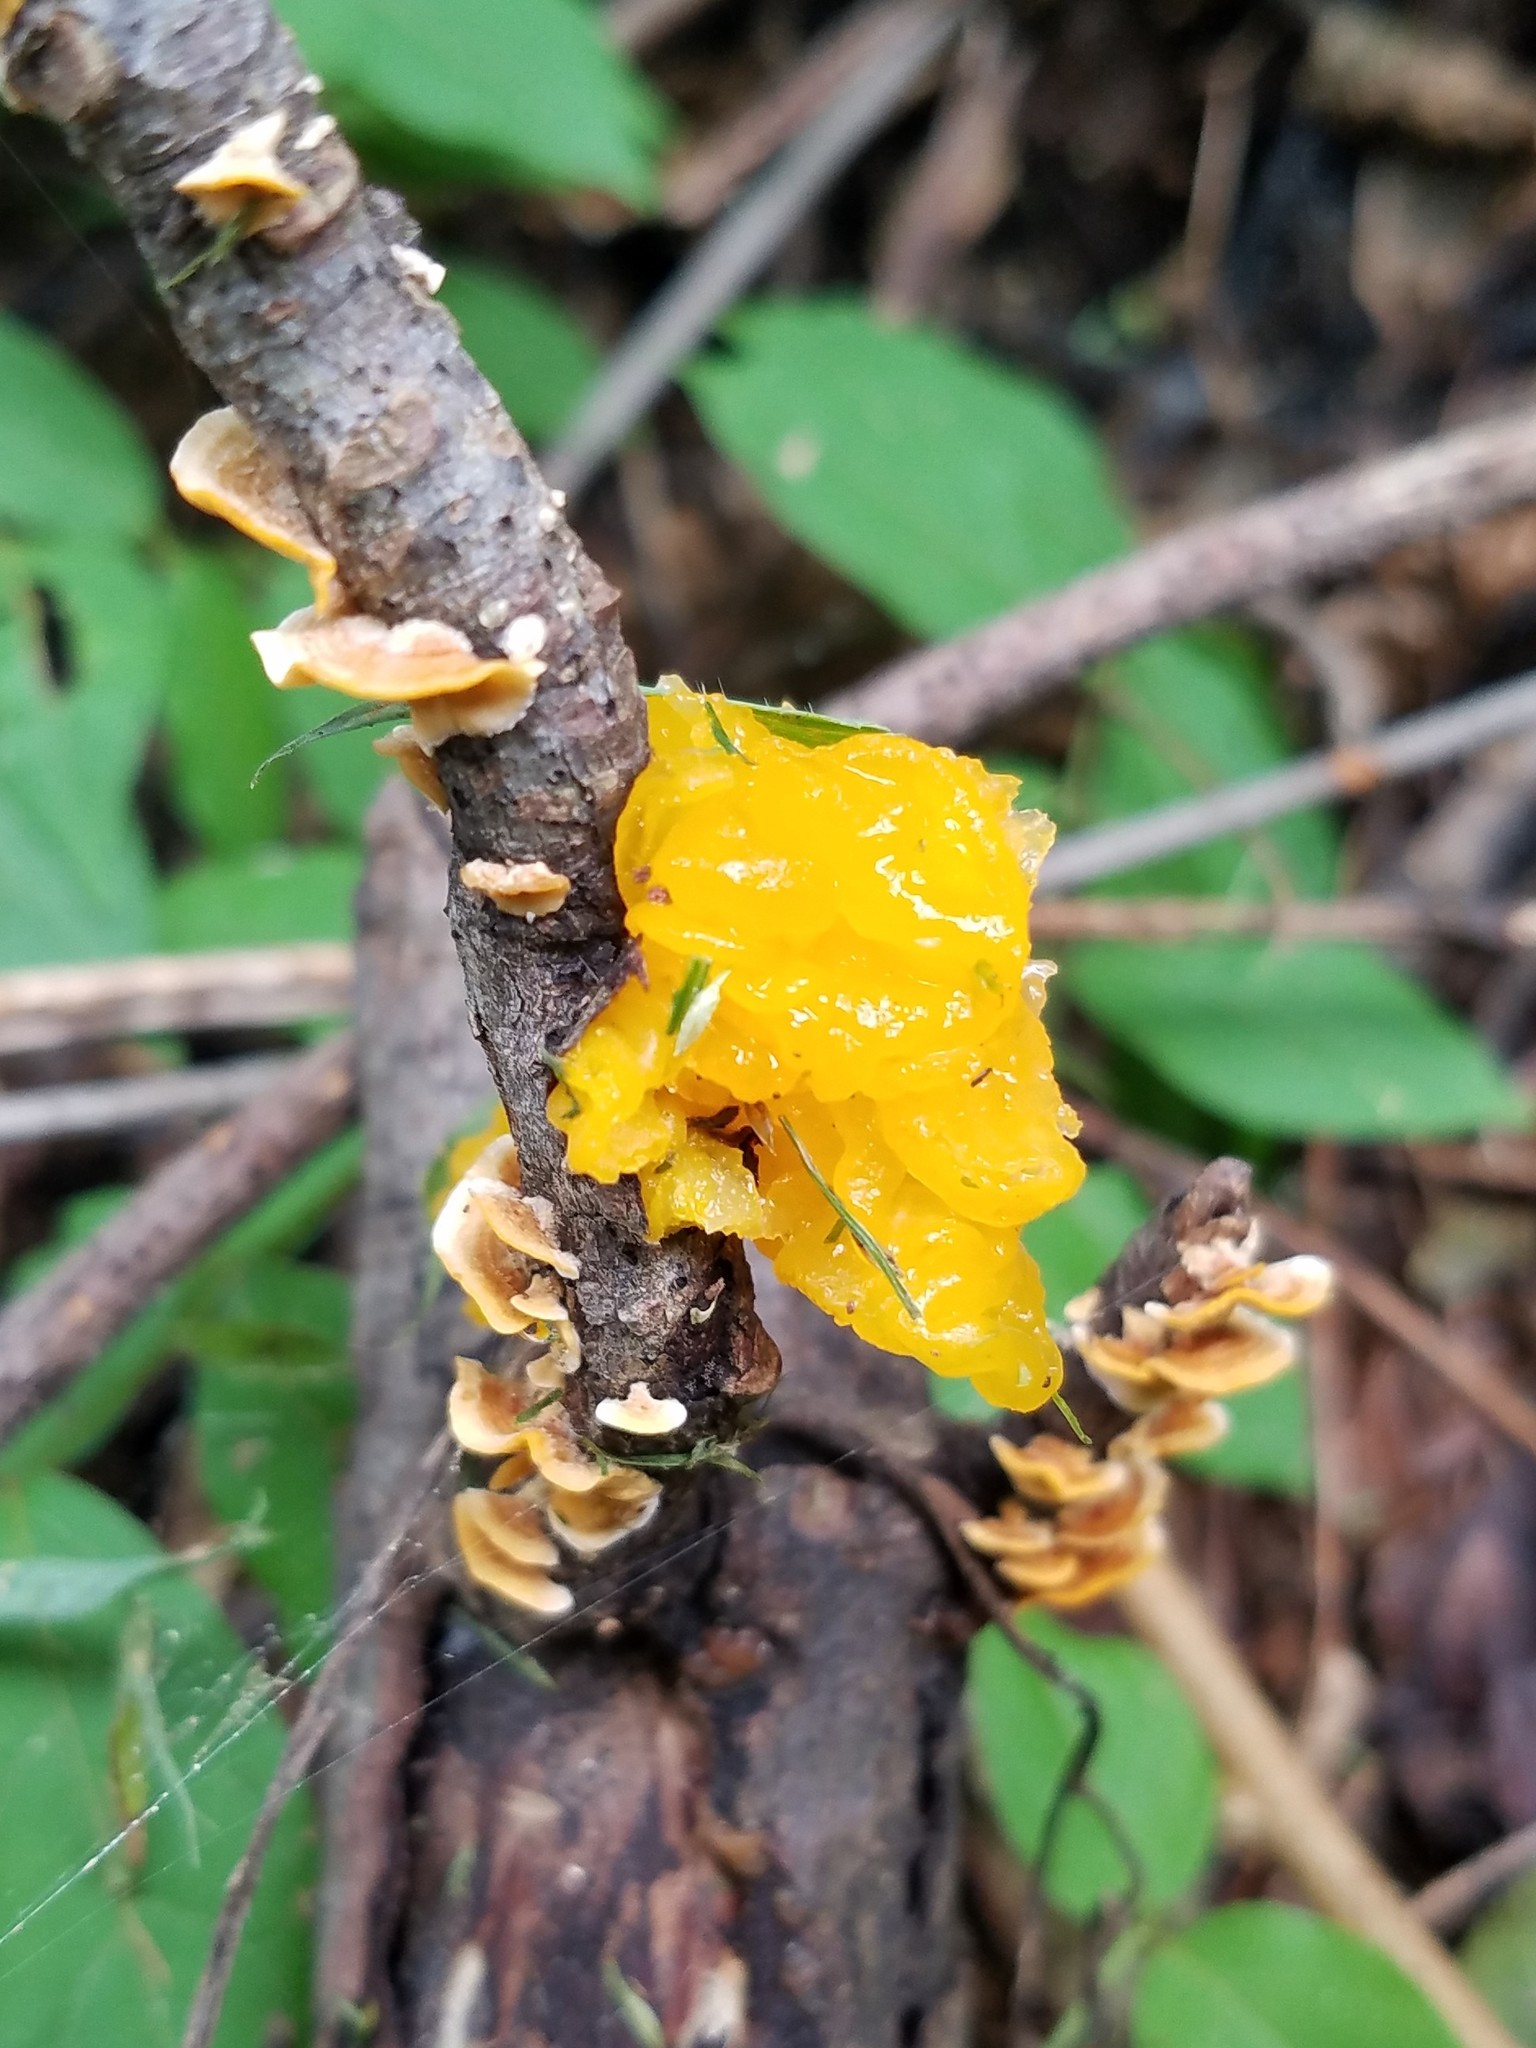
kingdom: Fungi
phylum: Basidiomycota
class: Tremellomycetes
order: Tremellales
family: Naemateliaceae
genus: Naematelia
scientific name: Naematelia aurantia
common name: Golden ear
